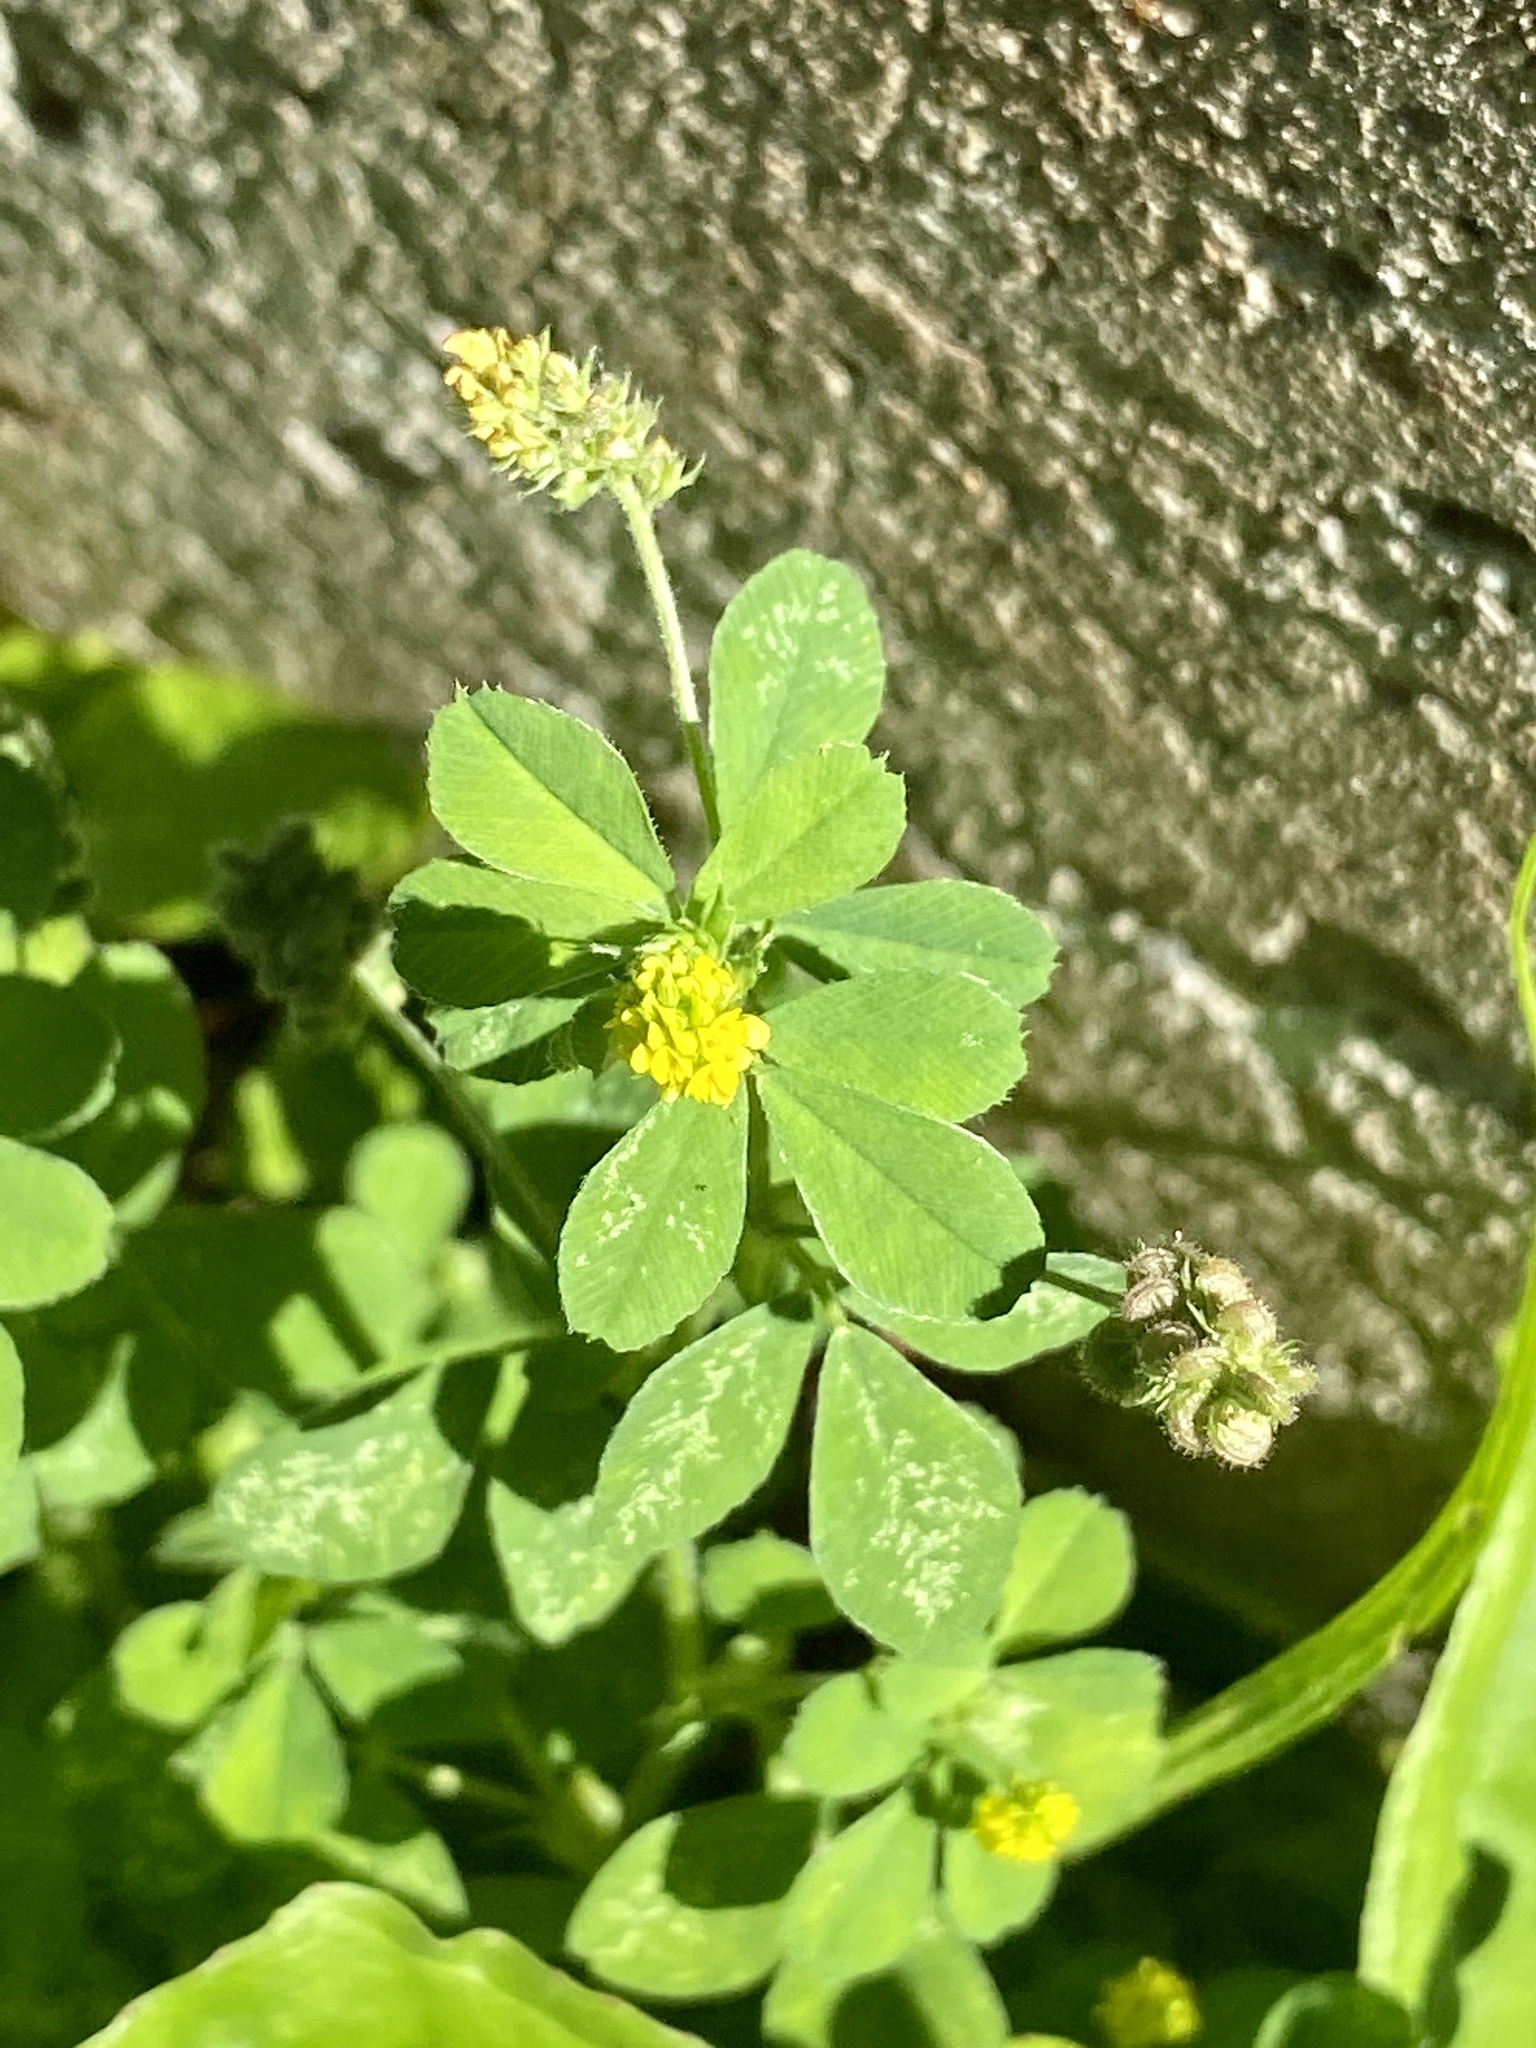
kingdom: Plantae
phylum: Tracheophyta
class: Magnoliopsida
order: Fabales
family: Fabaceae
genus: Medicago
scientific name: Medicago lupulina
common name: Black medick
